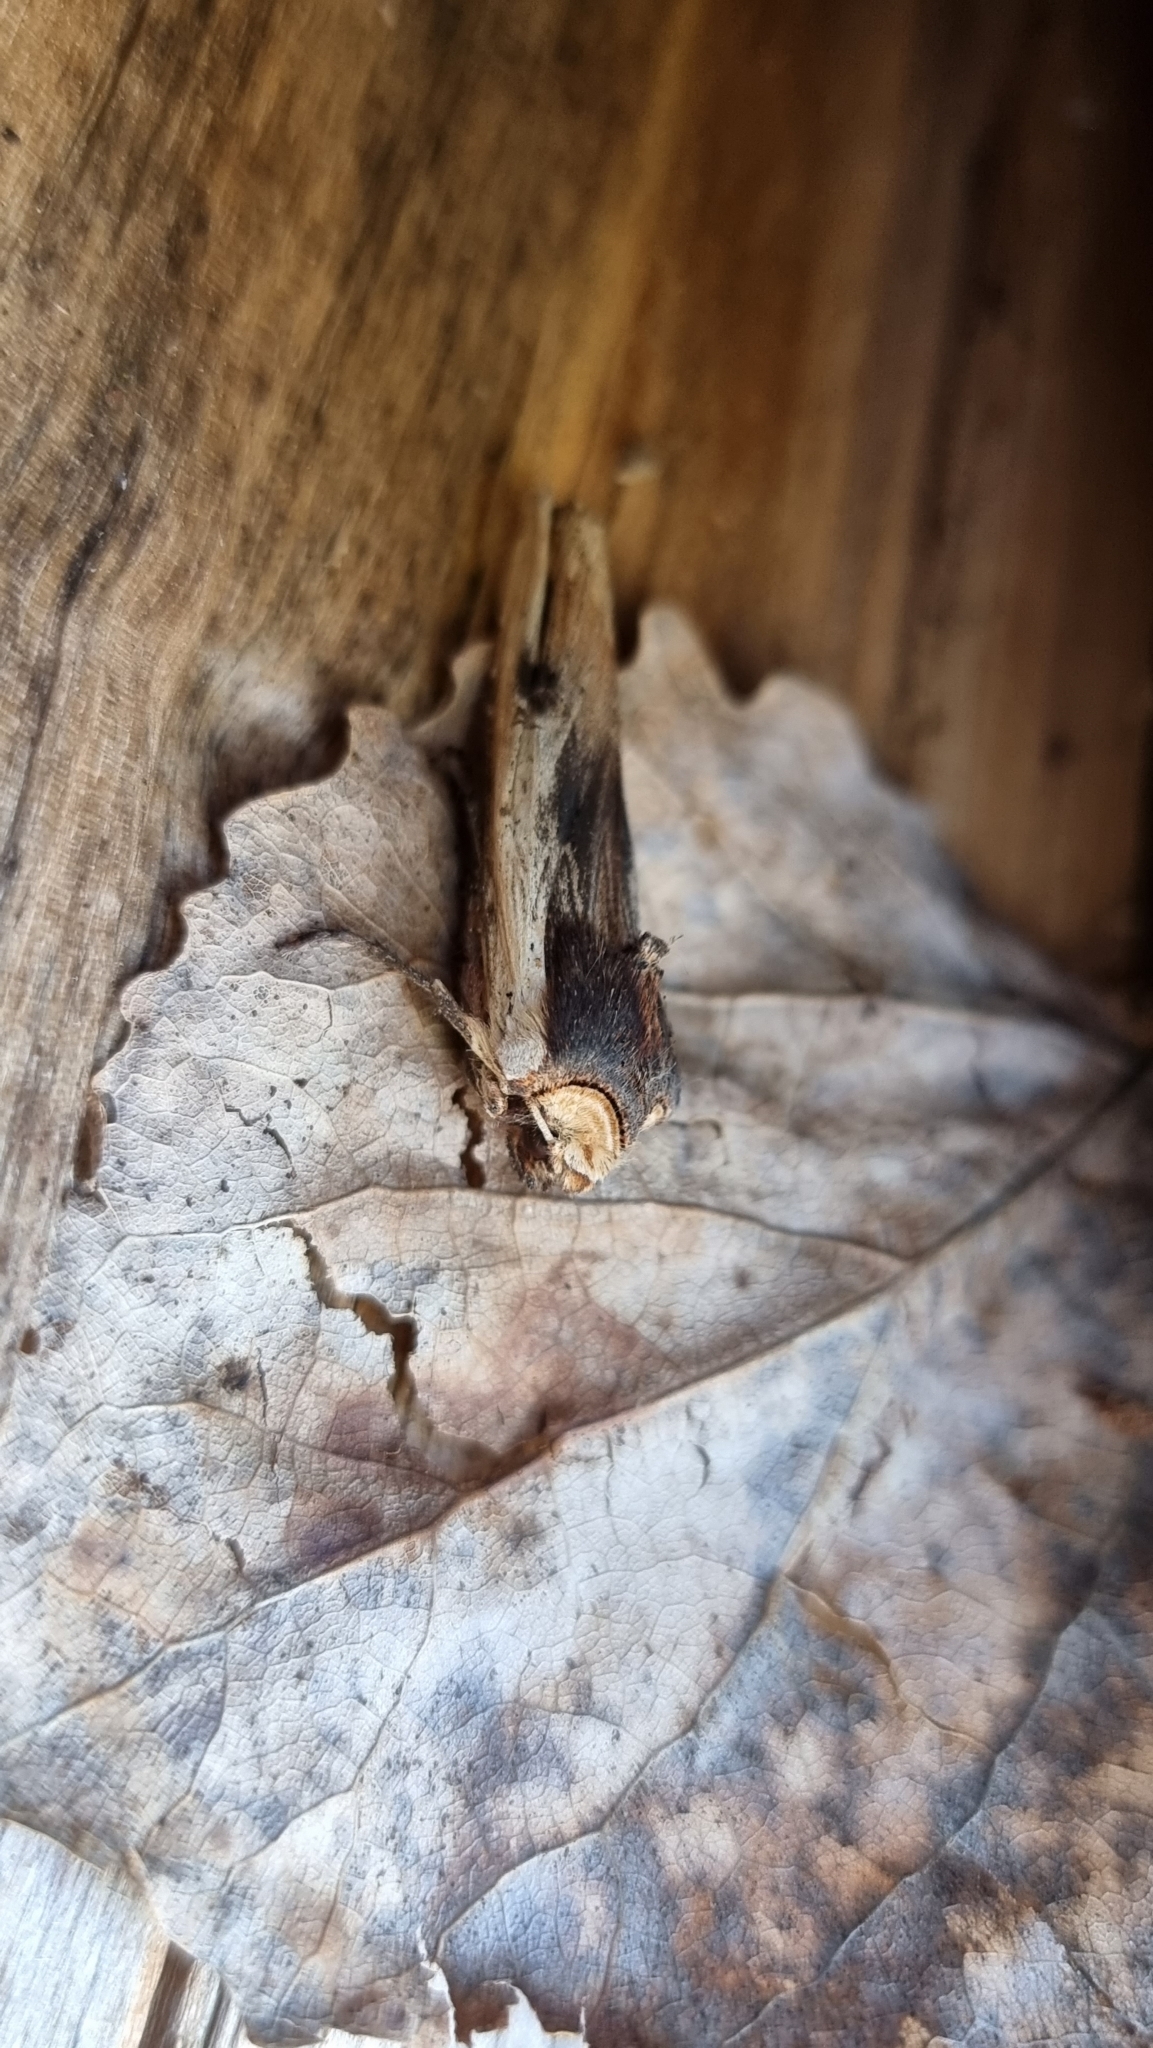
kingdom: Animalia
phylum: Arthropoda
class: Insecta
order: Lepidoptera
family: Noctuidae
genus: Xylena
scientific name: Xylena vetusta
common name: Red sword-grass
